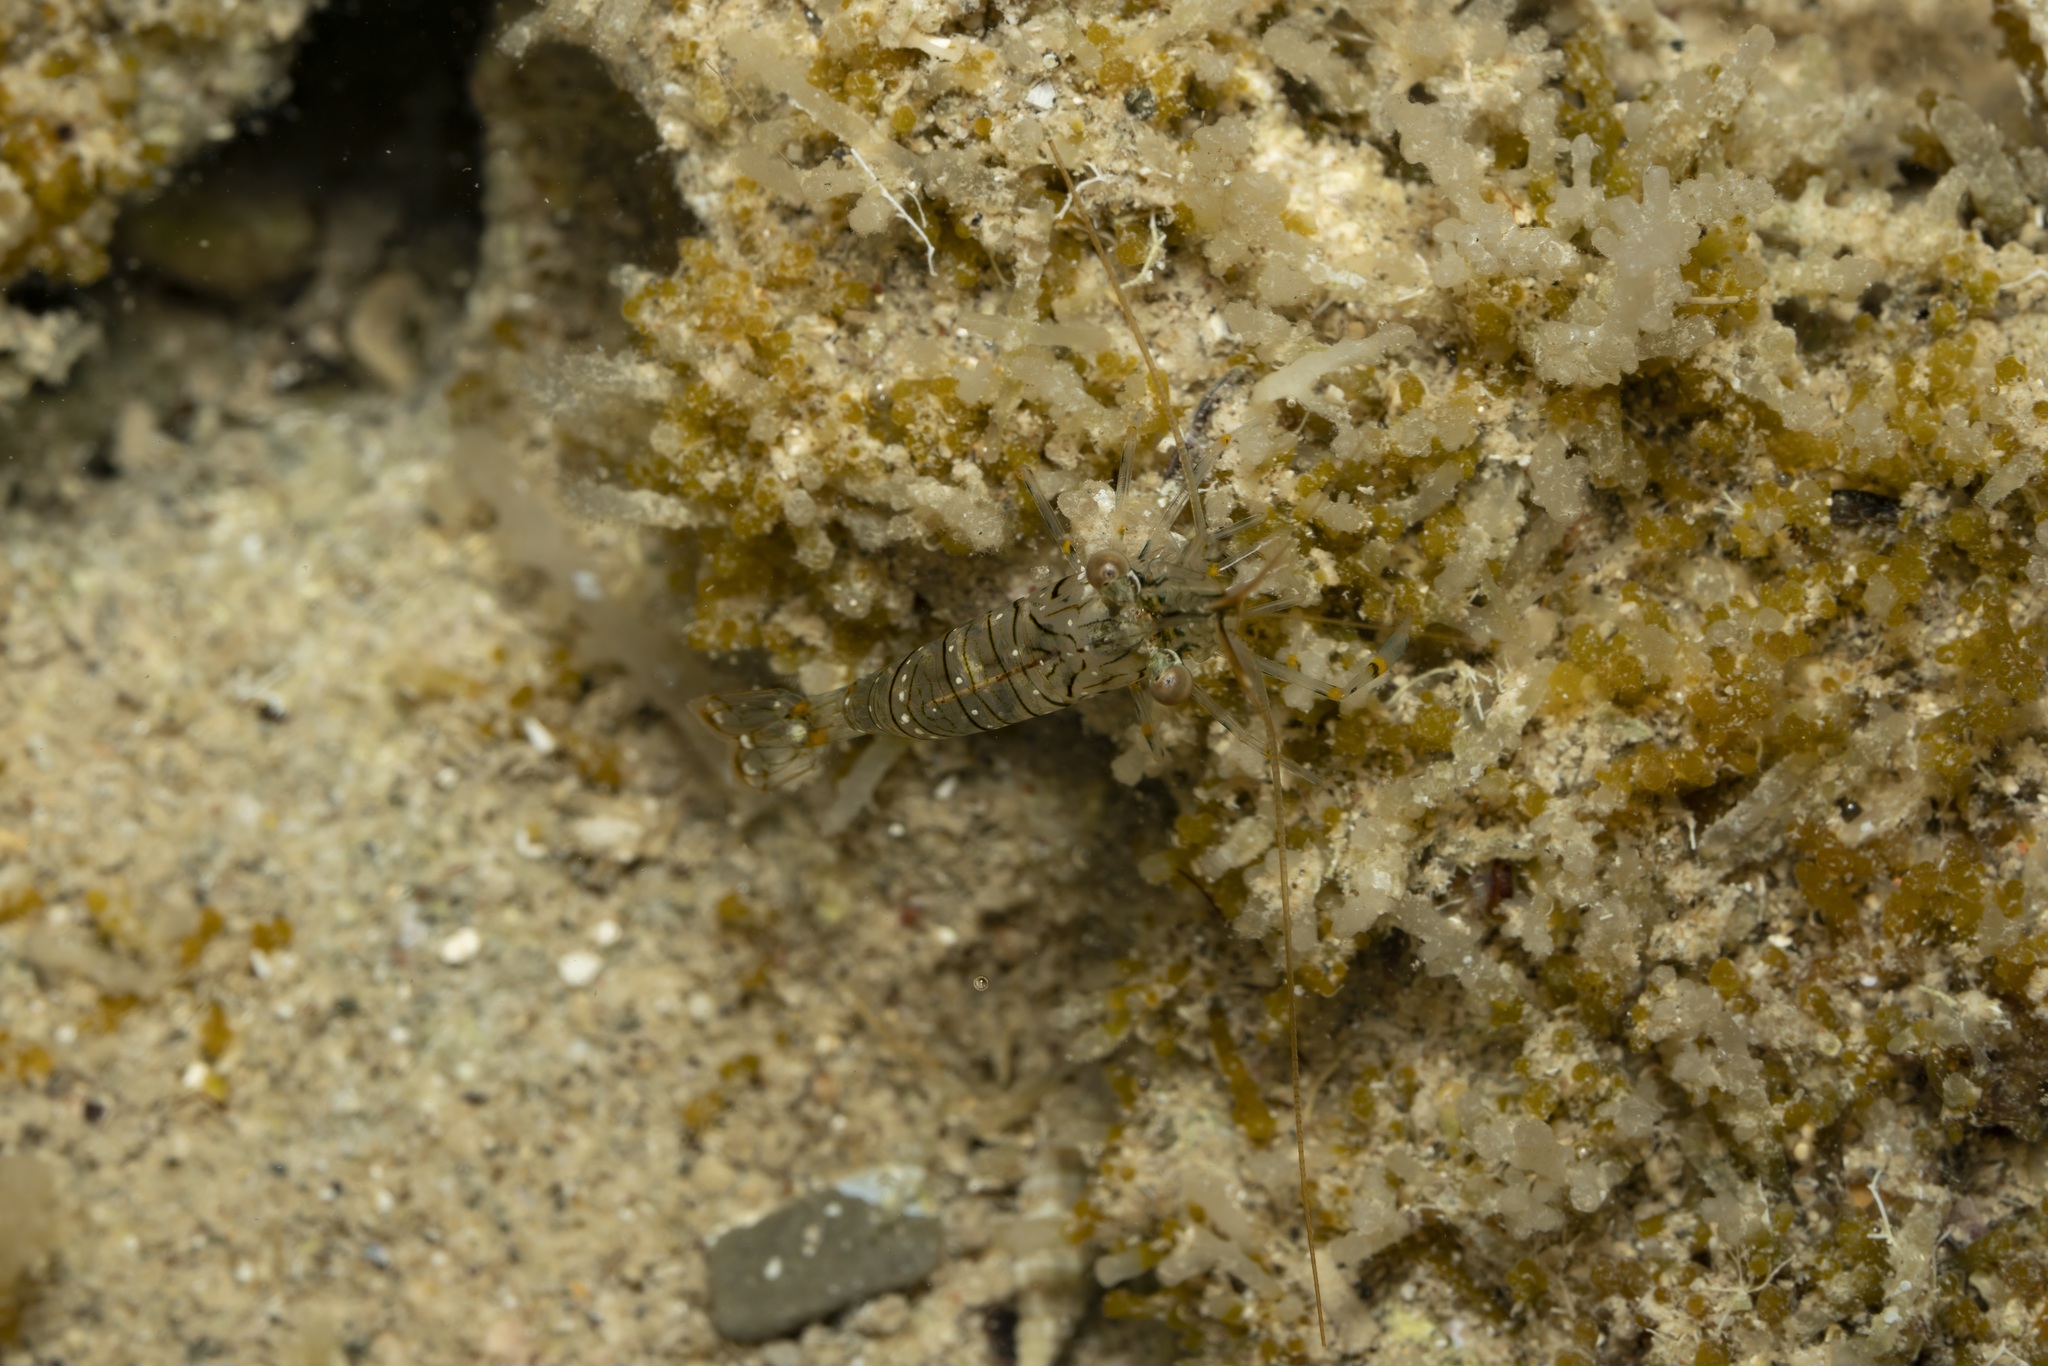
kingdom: Animalia
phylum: Arthropoda
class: Malacostraca
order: Decapoda
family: Palaemonidae
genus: Palaemon
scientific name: Palaemon elegans
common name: Grass prawm
